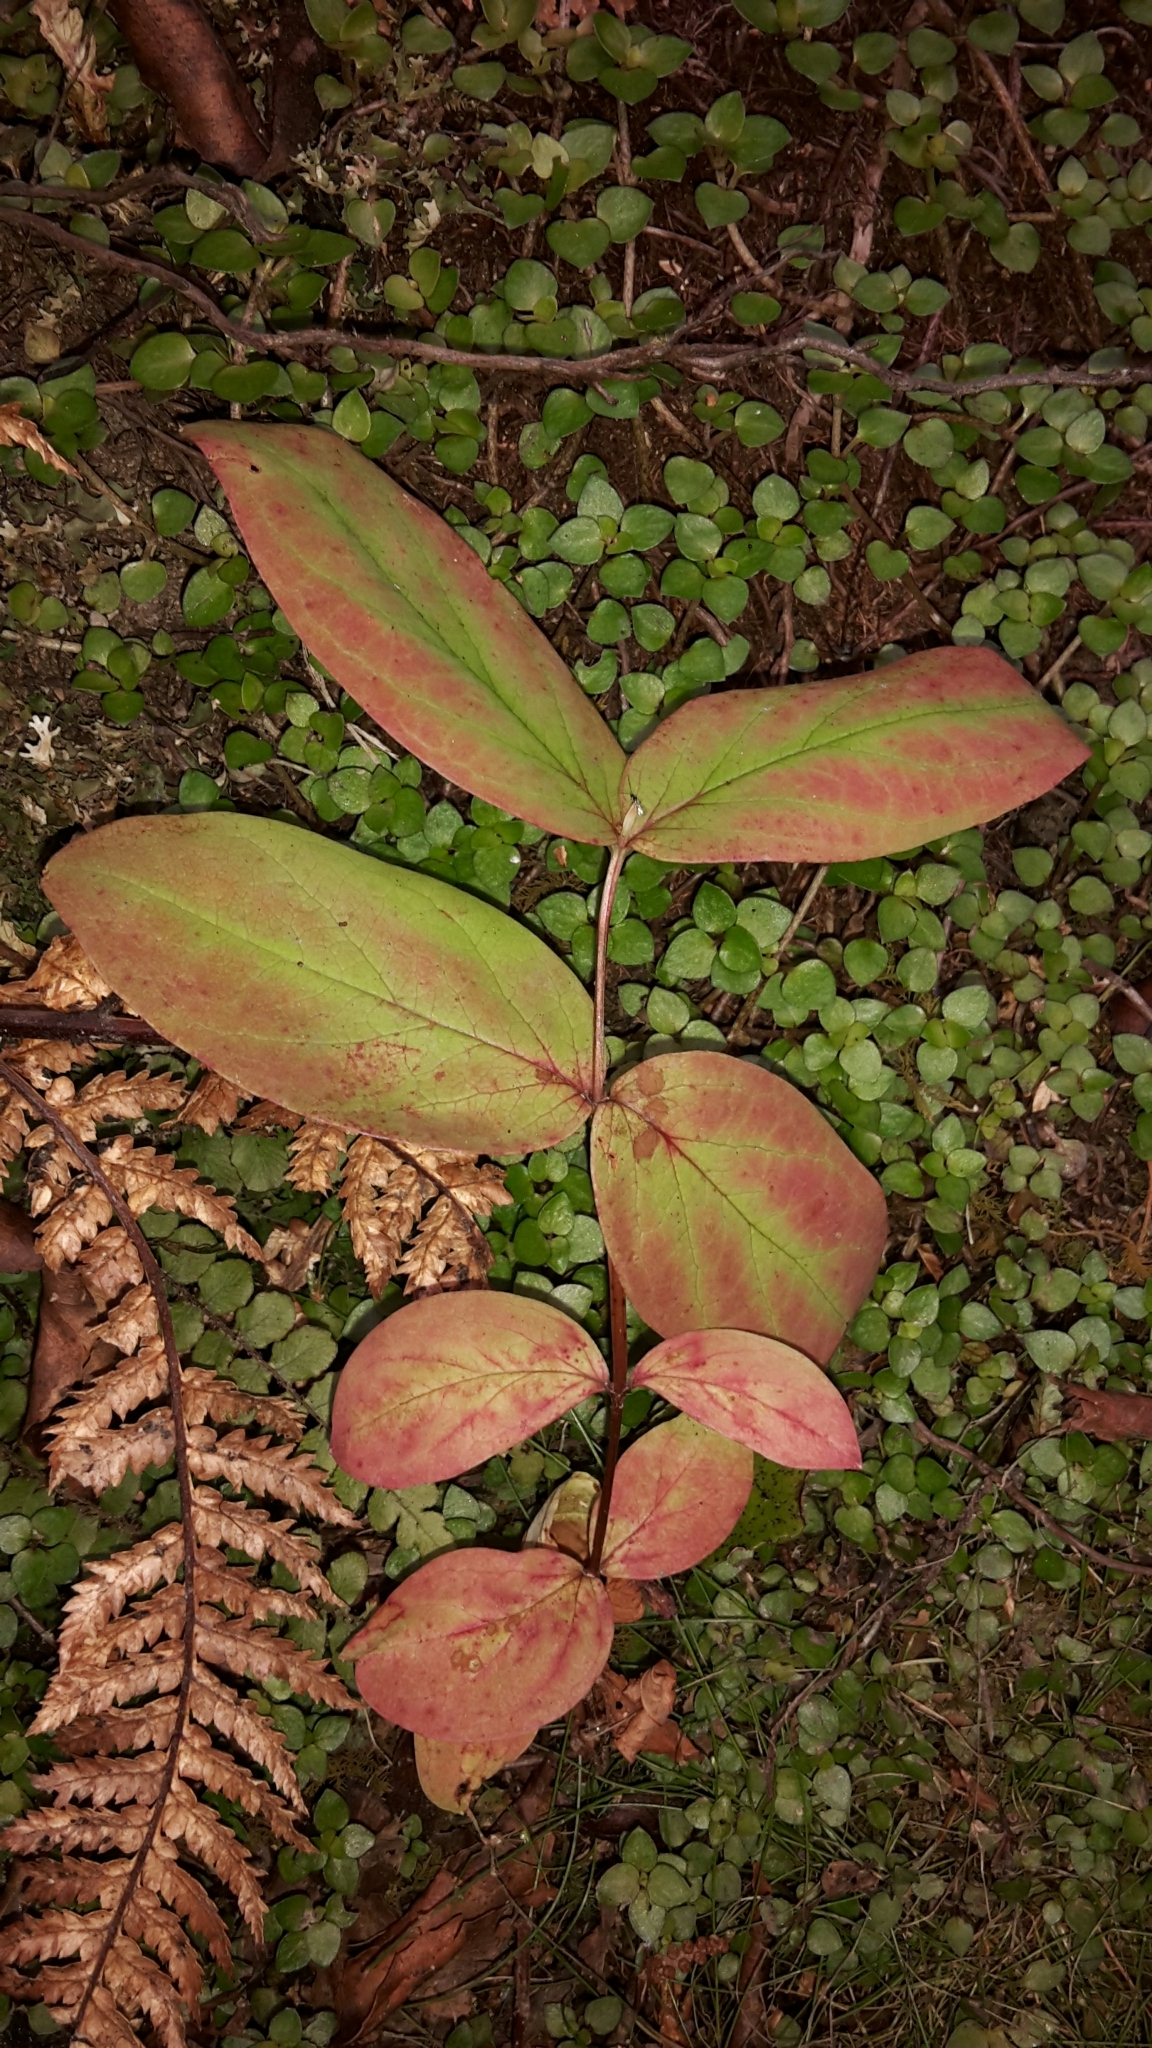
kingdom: Plantae
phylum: Tracheophyta
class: Magnoliopsida
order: Malpighiales
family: Hypericaceae
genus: Hypericum
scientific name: Hypericum androsaemum
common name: Sweet-amber
